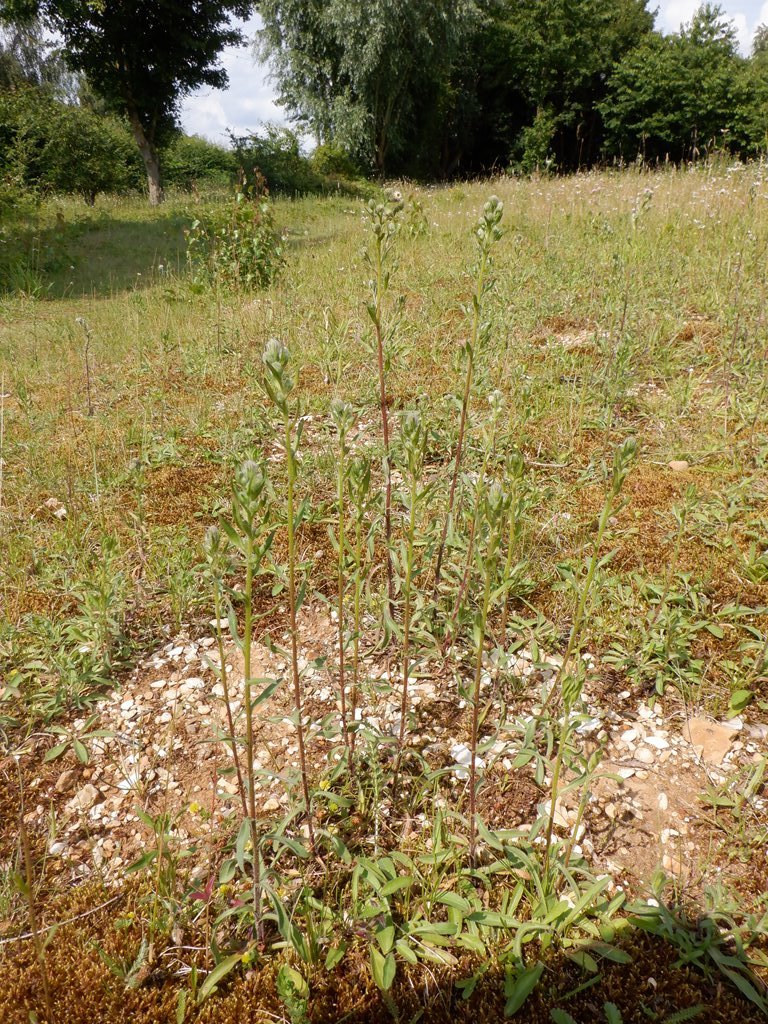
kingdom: Plantae
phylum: Tracheophyta
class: Magnoliopsida
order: Asterales
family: Asteraceae
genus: Erigeron
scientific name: Erigeron acris
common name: Blue fleabane
